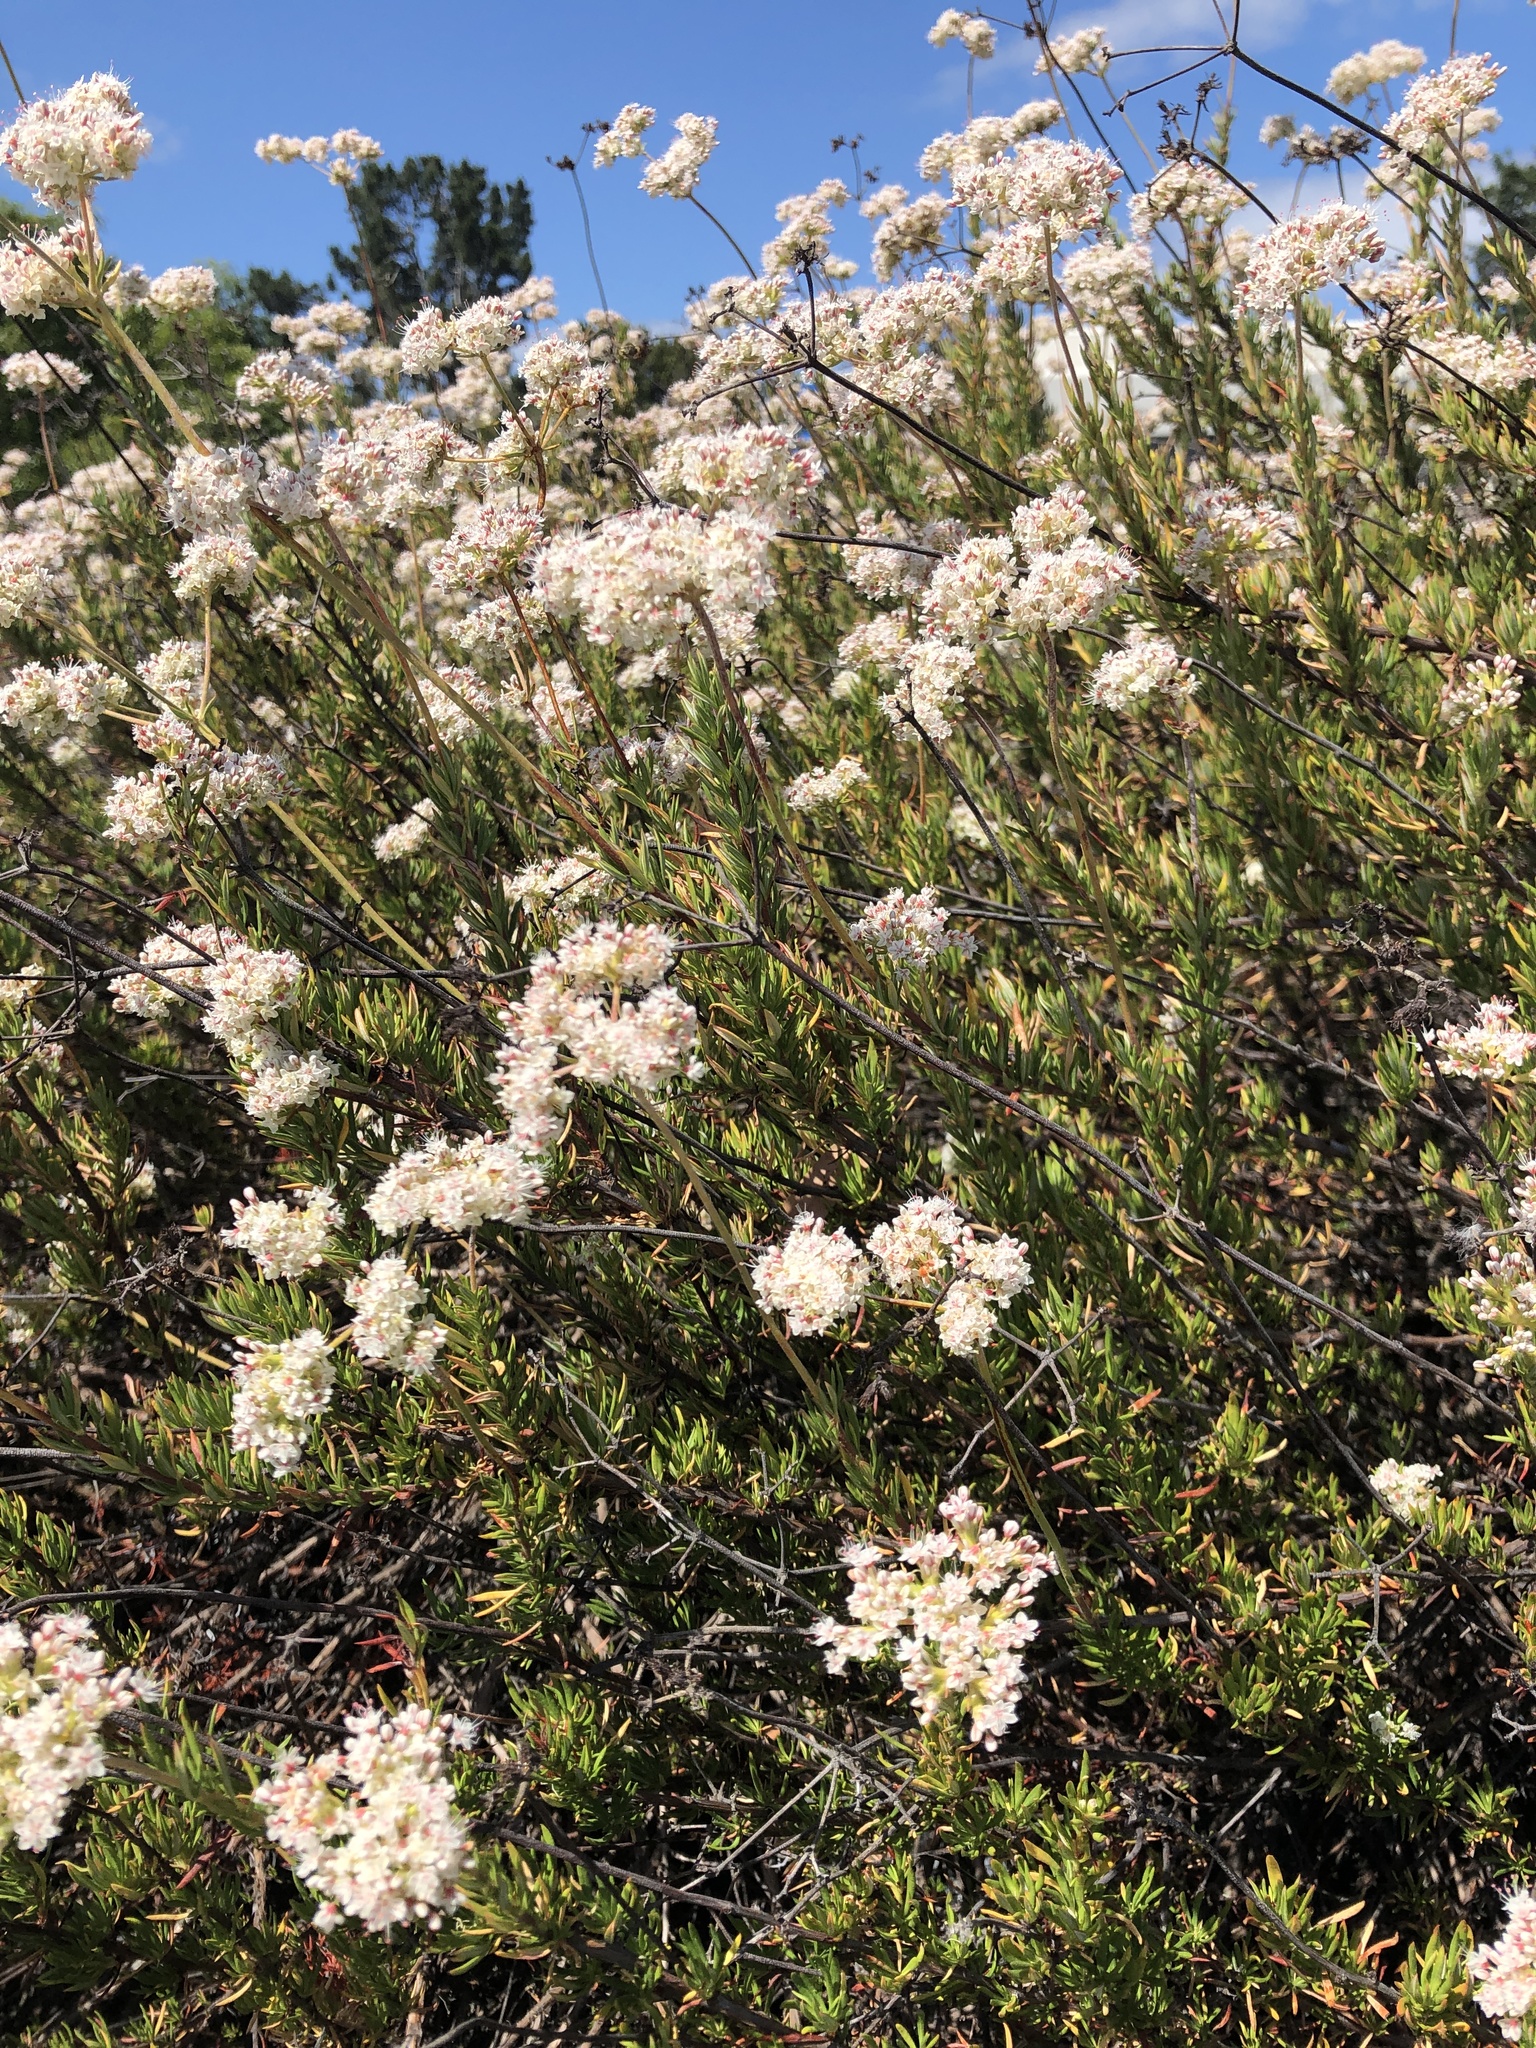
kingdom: Plantae
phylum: Tracheophyta
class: Magnoliopsida
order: Caryophyllales
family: Polygonaceae
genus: Eriogonum
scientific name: Eriogonum fasciculatum
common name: California wild buckwheat
